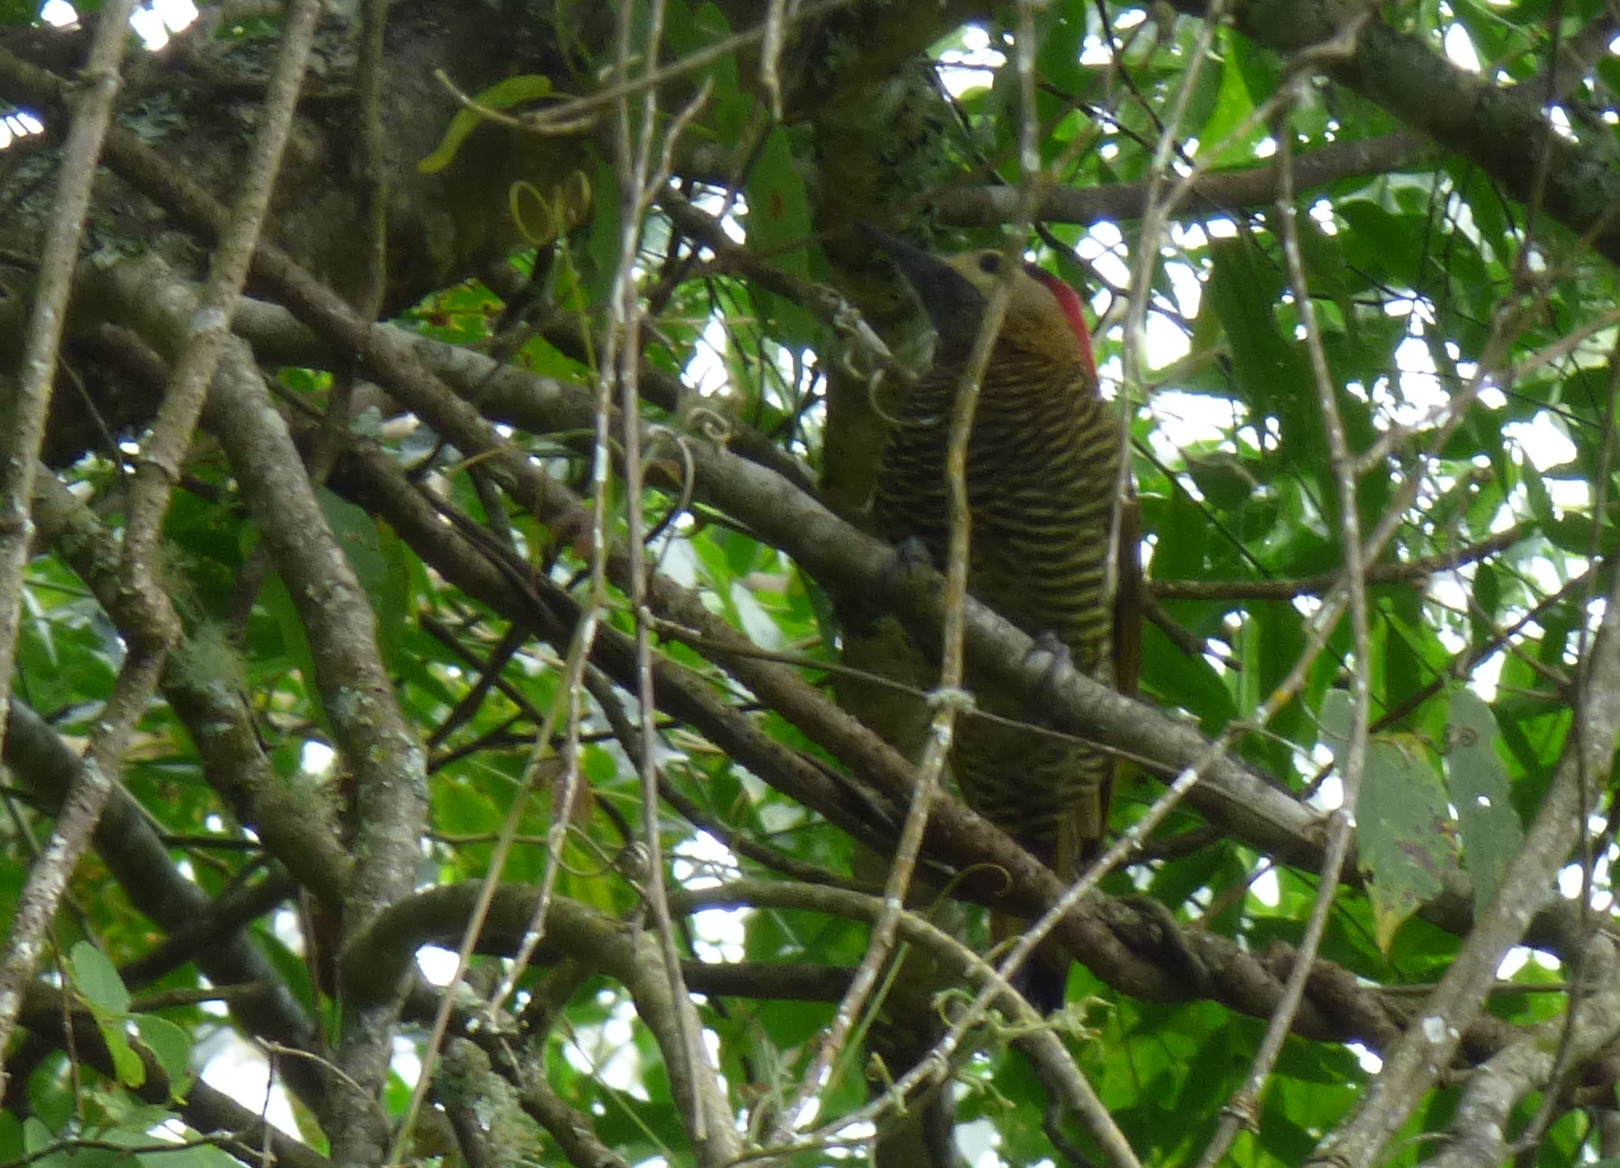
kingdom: Animalia
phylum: Chordata
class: Aves
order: Piciformes
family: Picidae
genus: Colaptes
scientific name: Colaptes rubiginosus
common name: Golden-olive woodpecker
